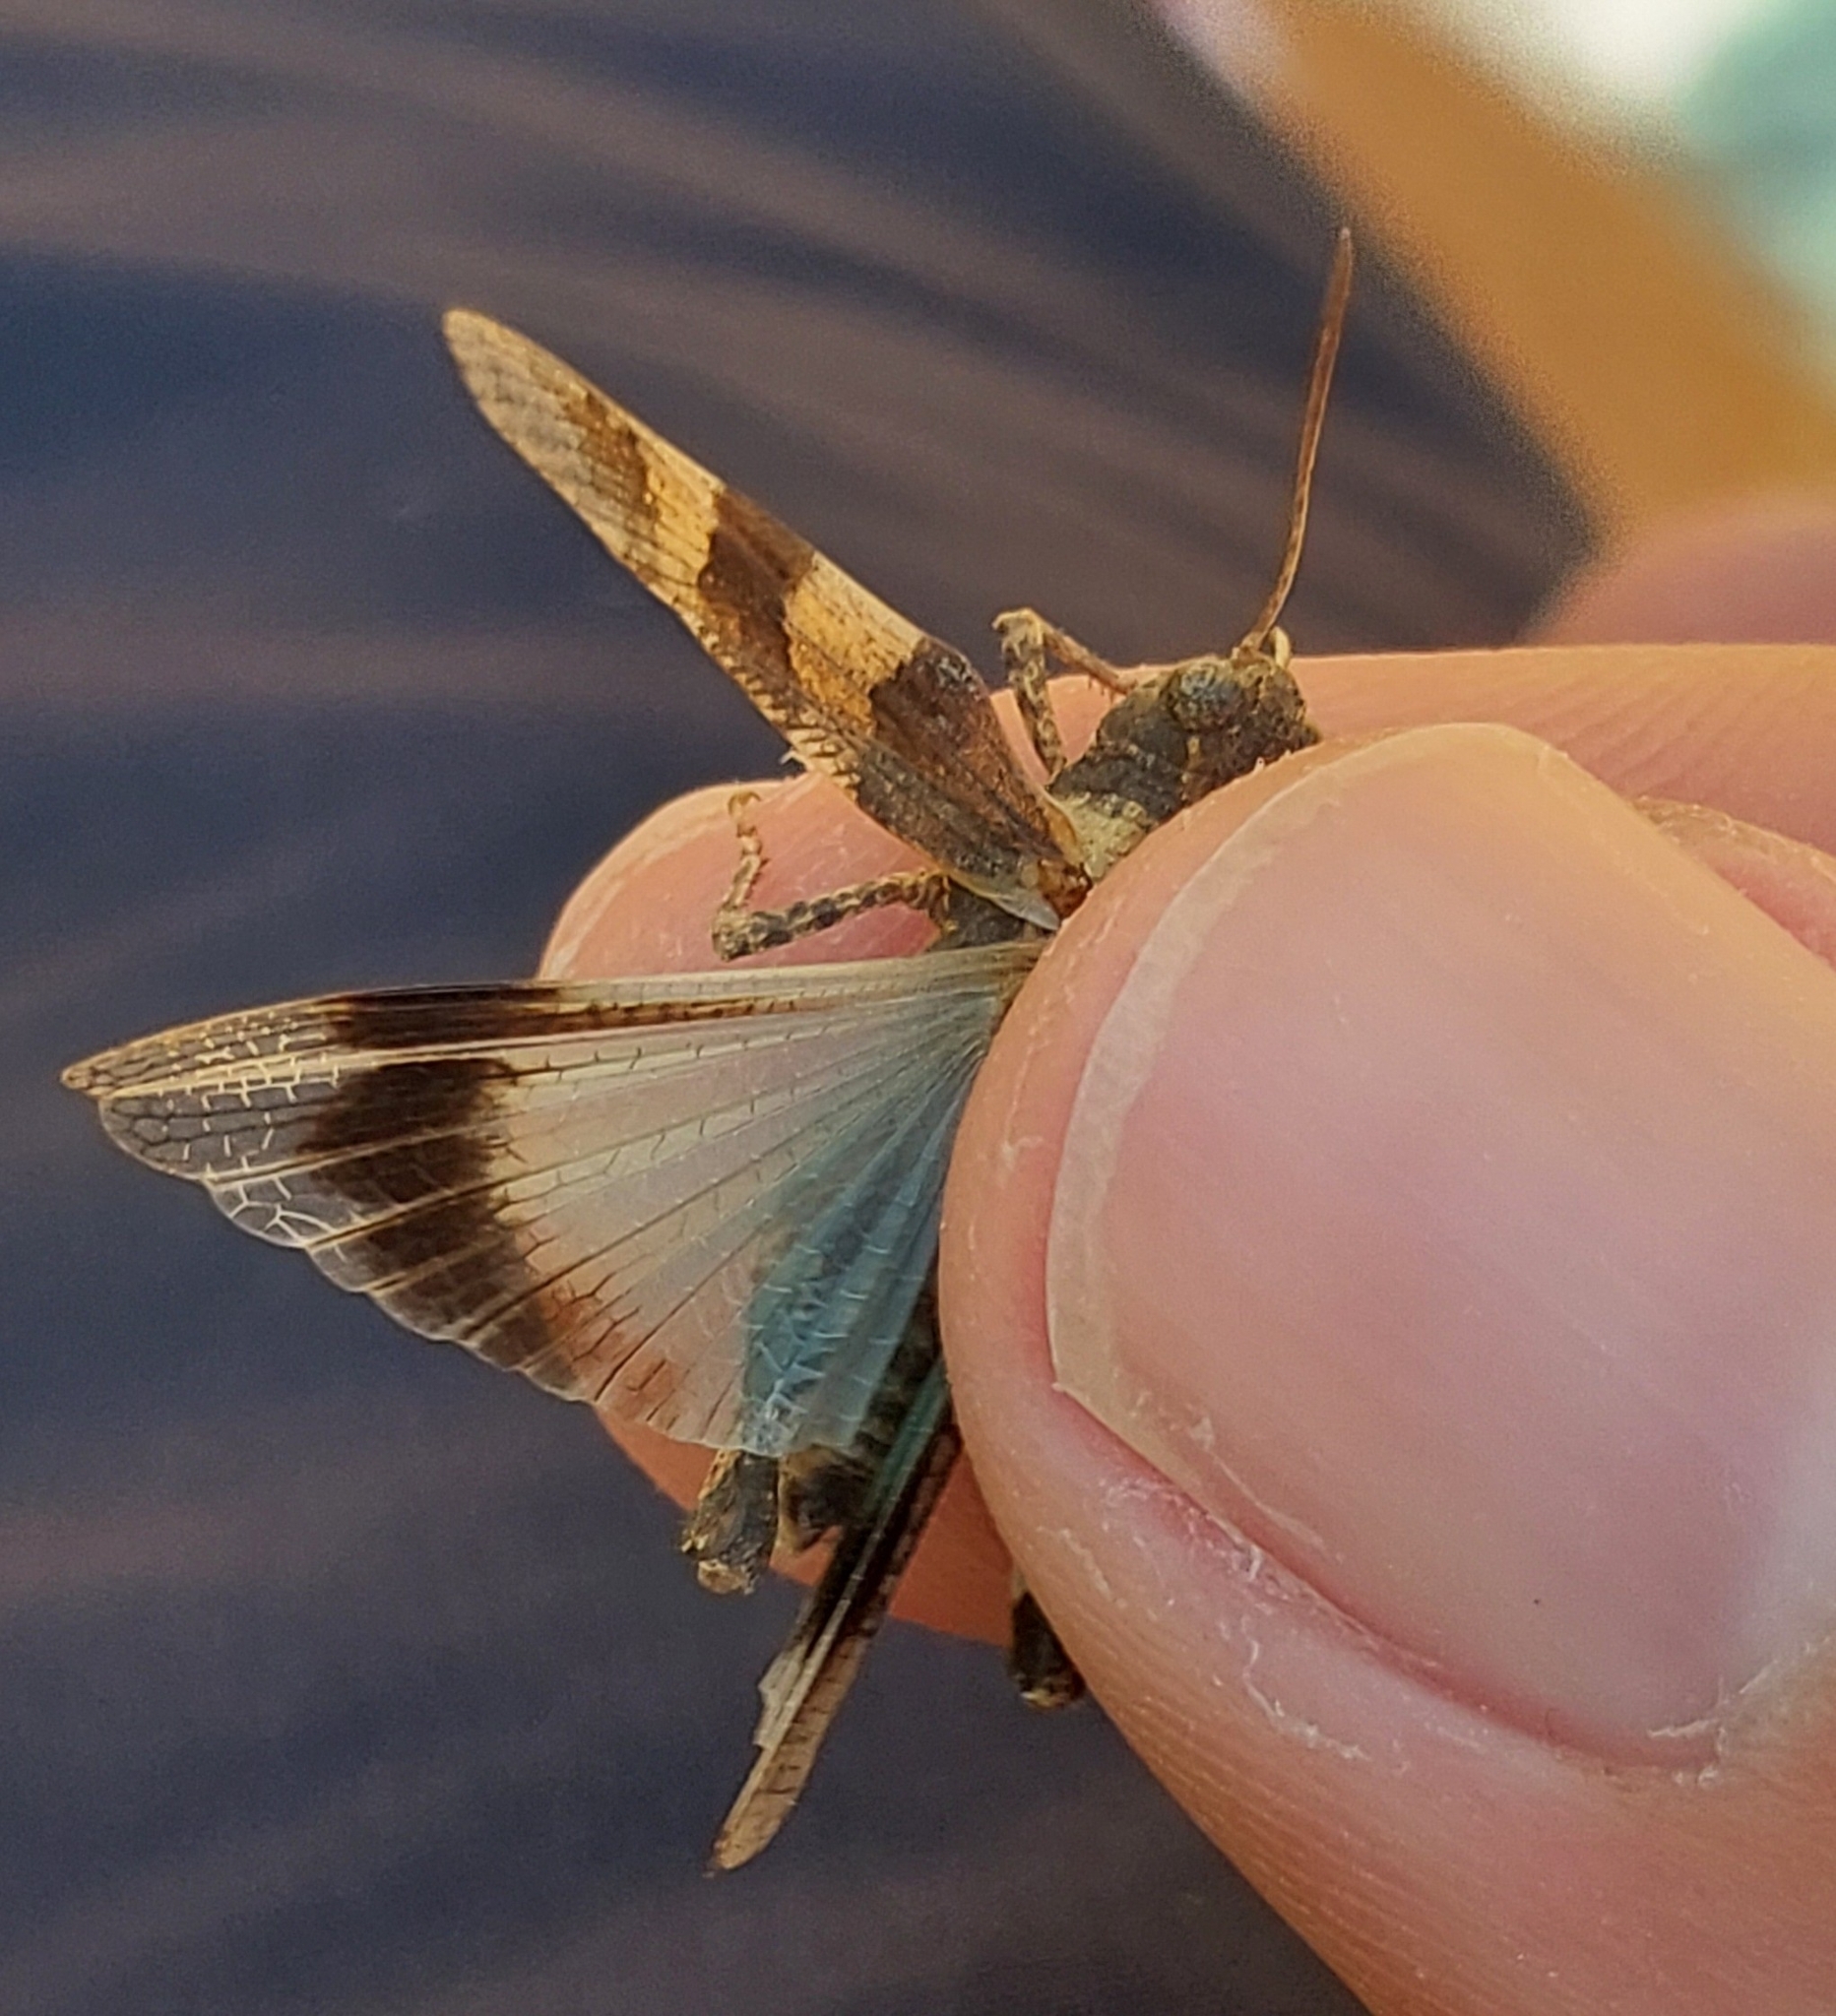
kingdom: Animalia
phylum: Arthropoda
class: Insecta
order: Orthoptera
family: Acrididae
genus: Oedipoda
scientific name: Oedipoda caerulescens
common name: Blue-winged grasshopper
